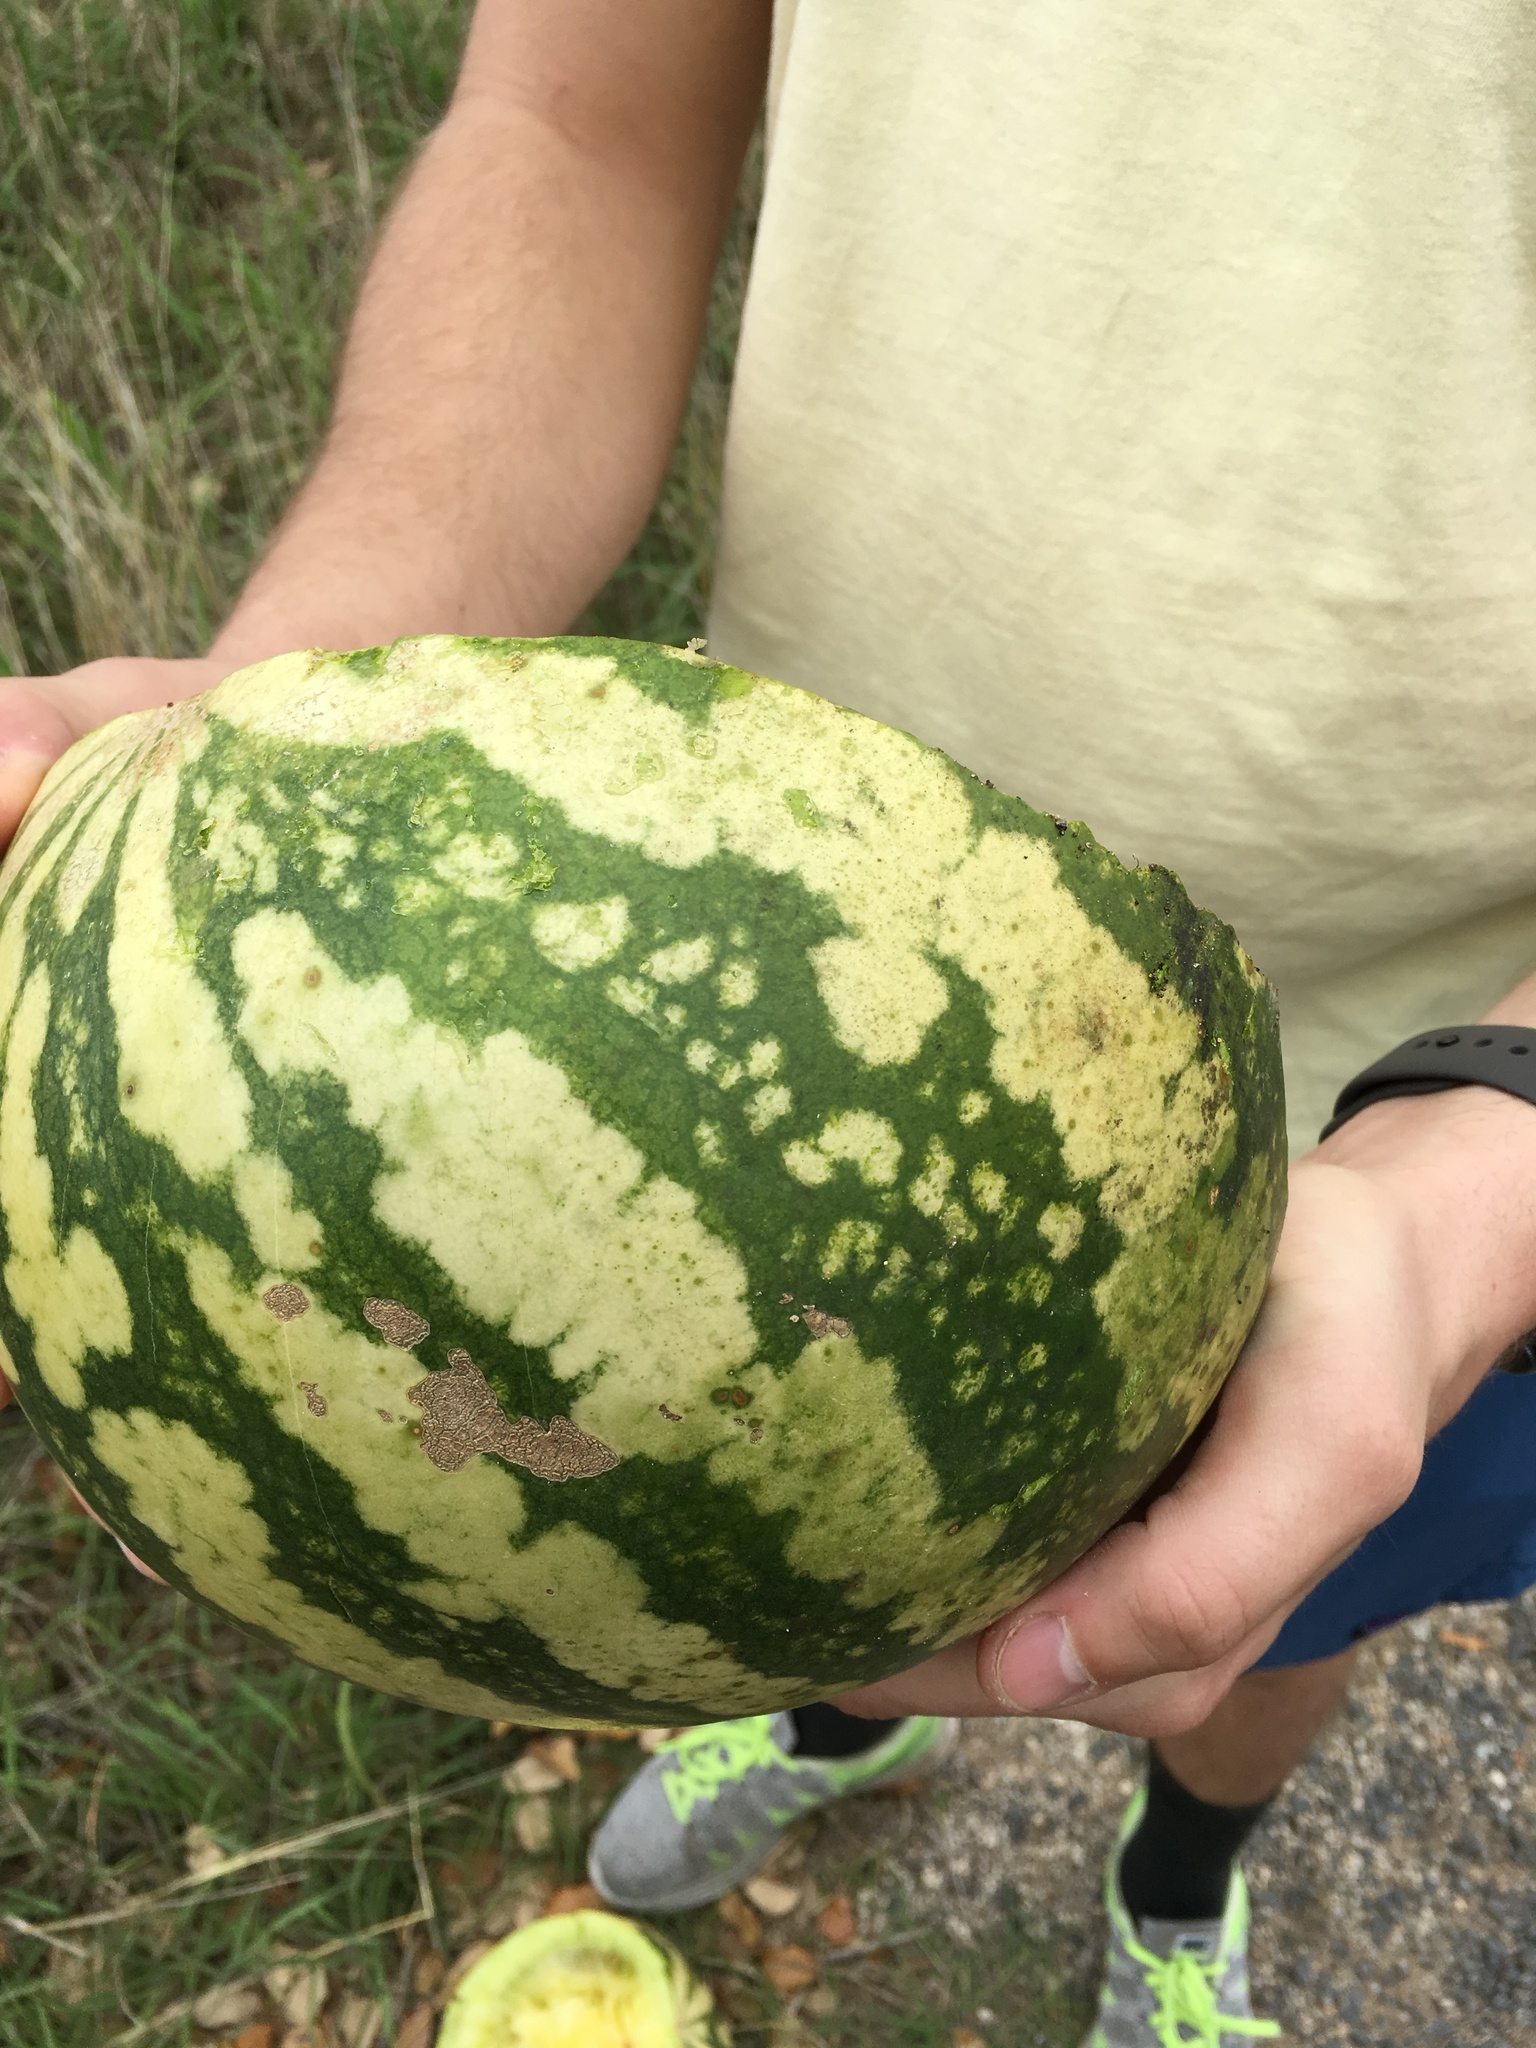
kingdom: Plantae
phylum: Tracheophyta
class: Magnoliopsida
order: Cucurbitales
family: Cucurbitaceae
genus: Citrullus
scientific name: Citrullus amarus
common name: Fodder-melon
